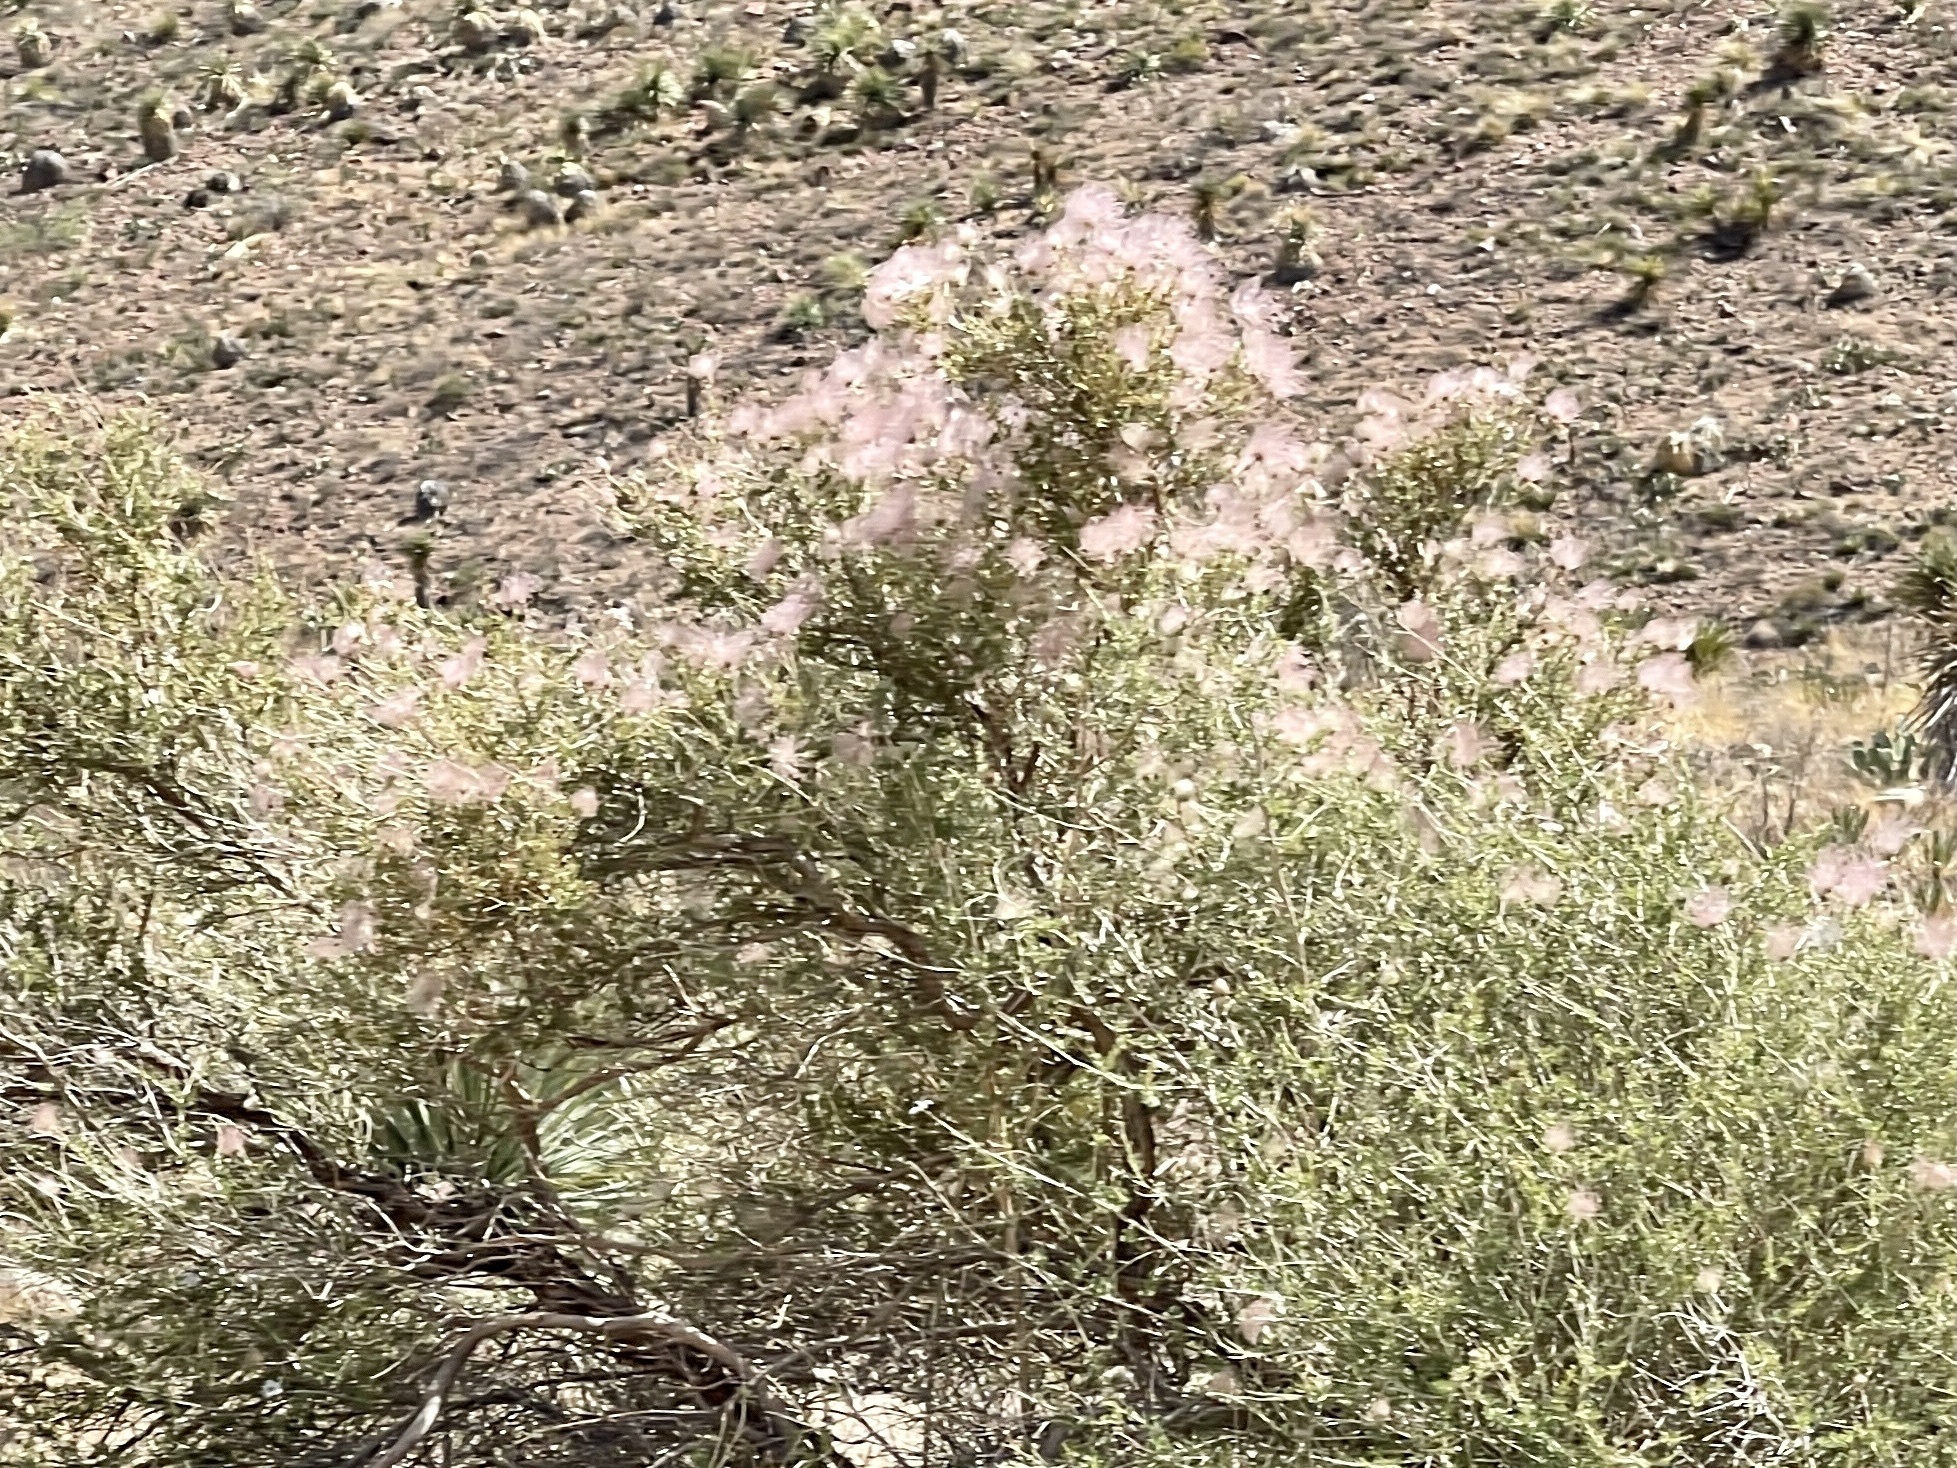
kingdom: Plantae
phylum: Tracheophyta
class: Magnoliopsida
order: Rosales
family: Rosaceae
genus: Fallugia
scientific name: Fallugia paradoxa
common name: Apache-plume
